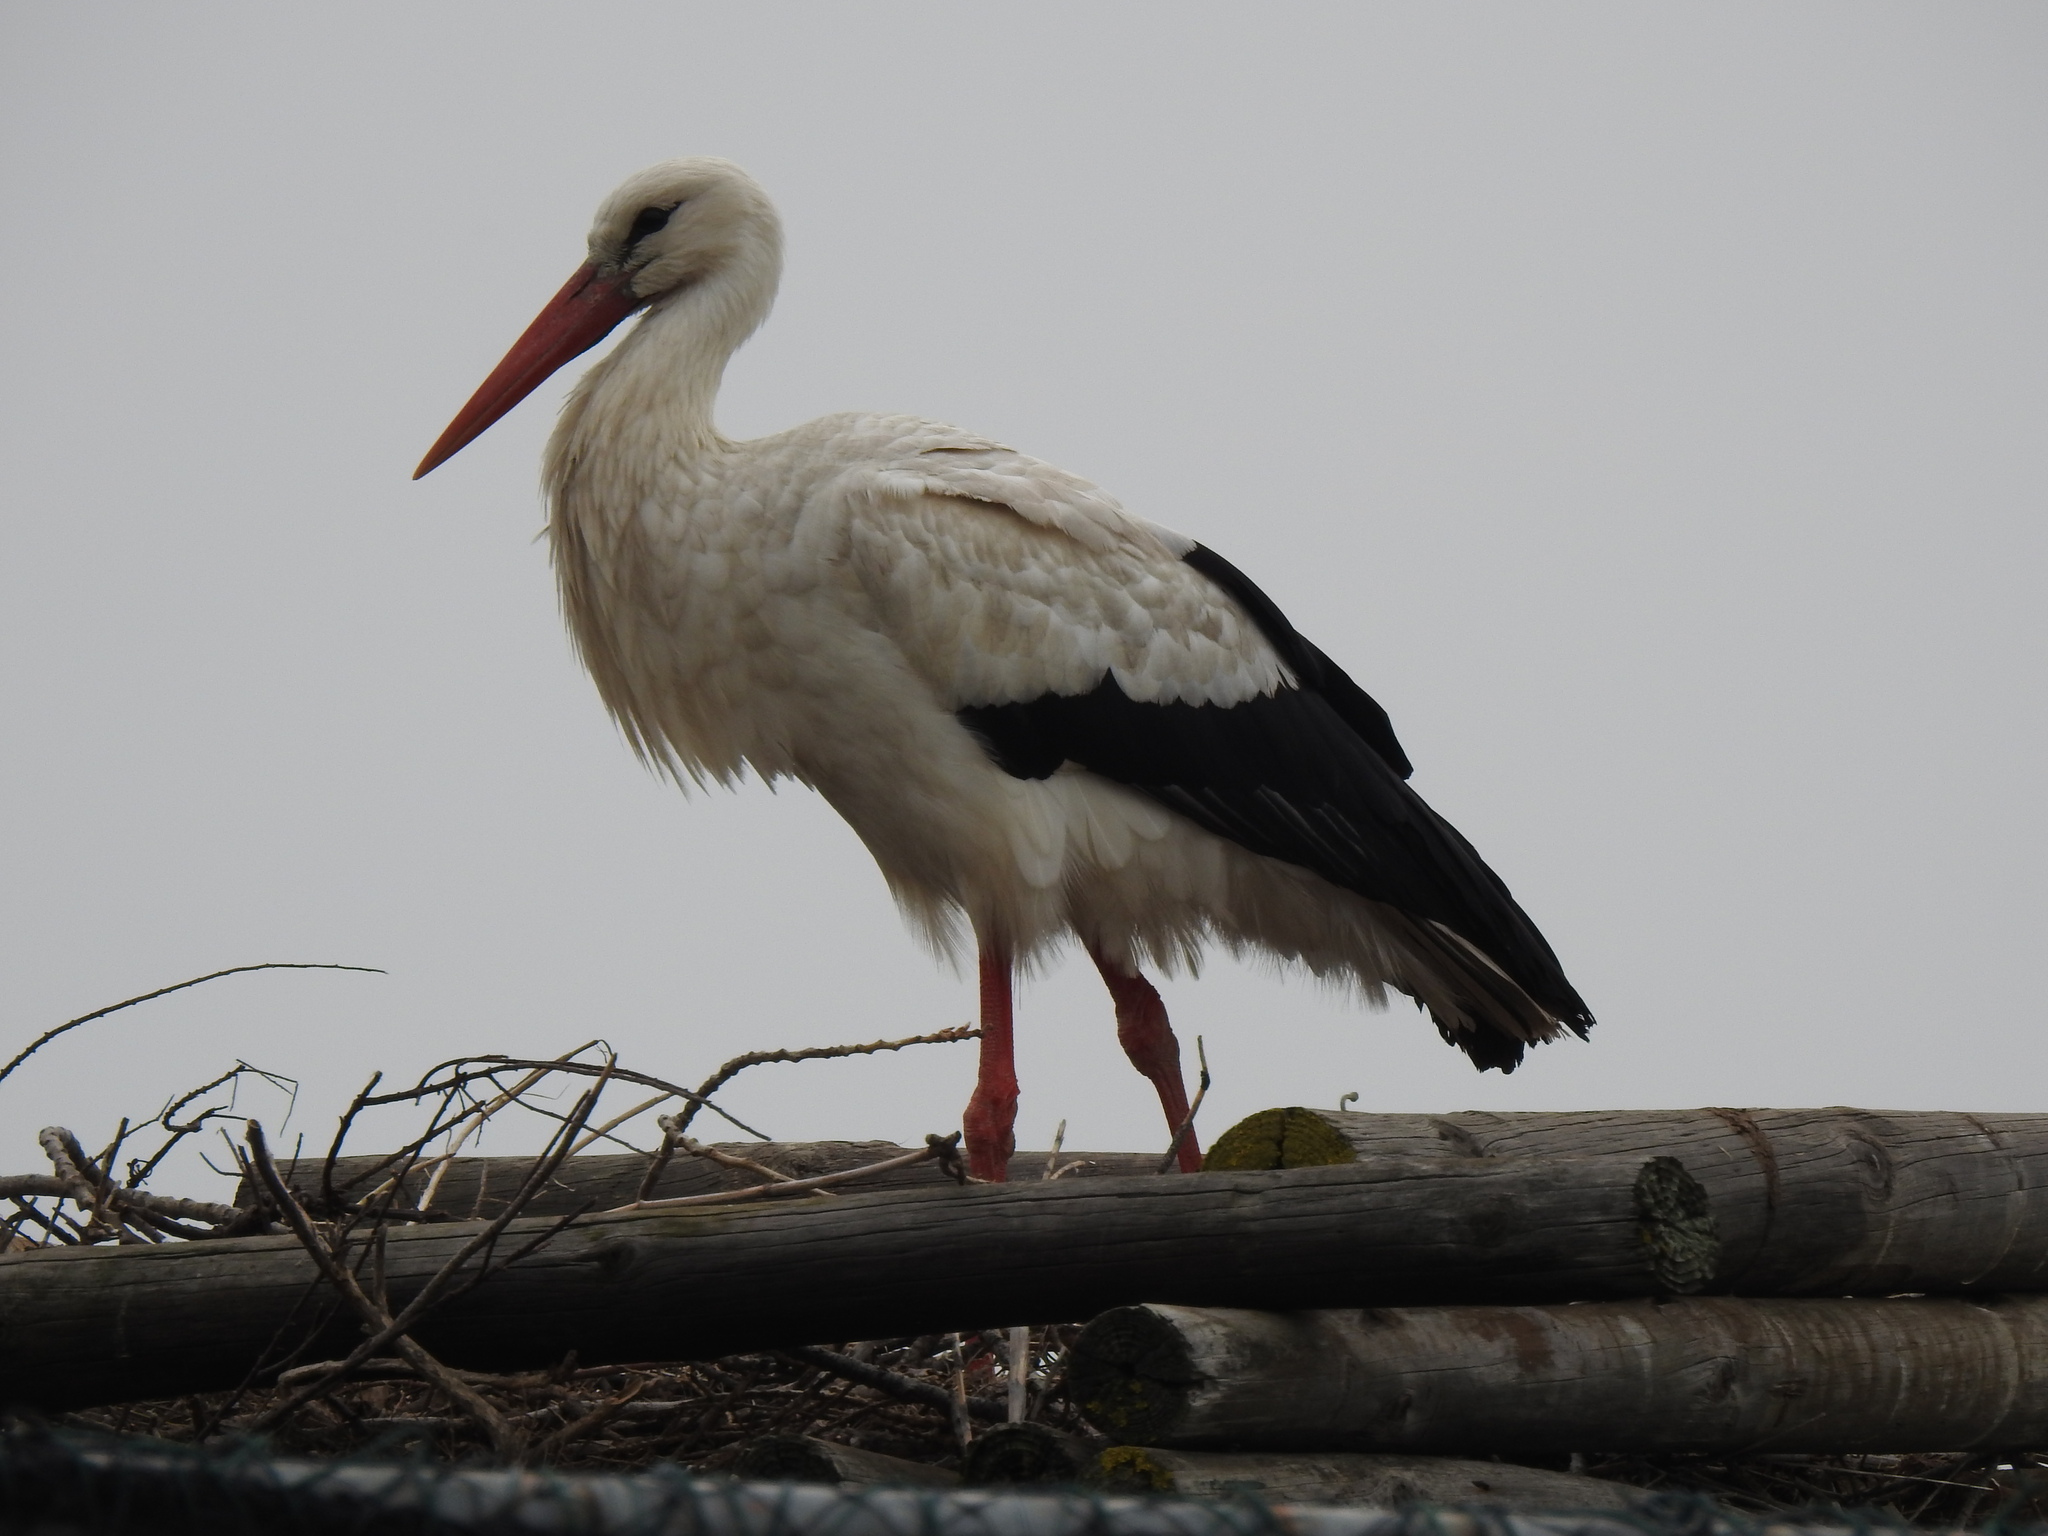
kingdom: Animalia
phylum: Chordata
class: Aves
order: Ciconiiformes
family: Ciconiidae
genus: Ciconia
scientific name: Ciconia ciconia
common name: White stork
